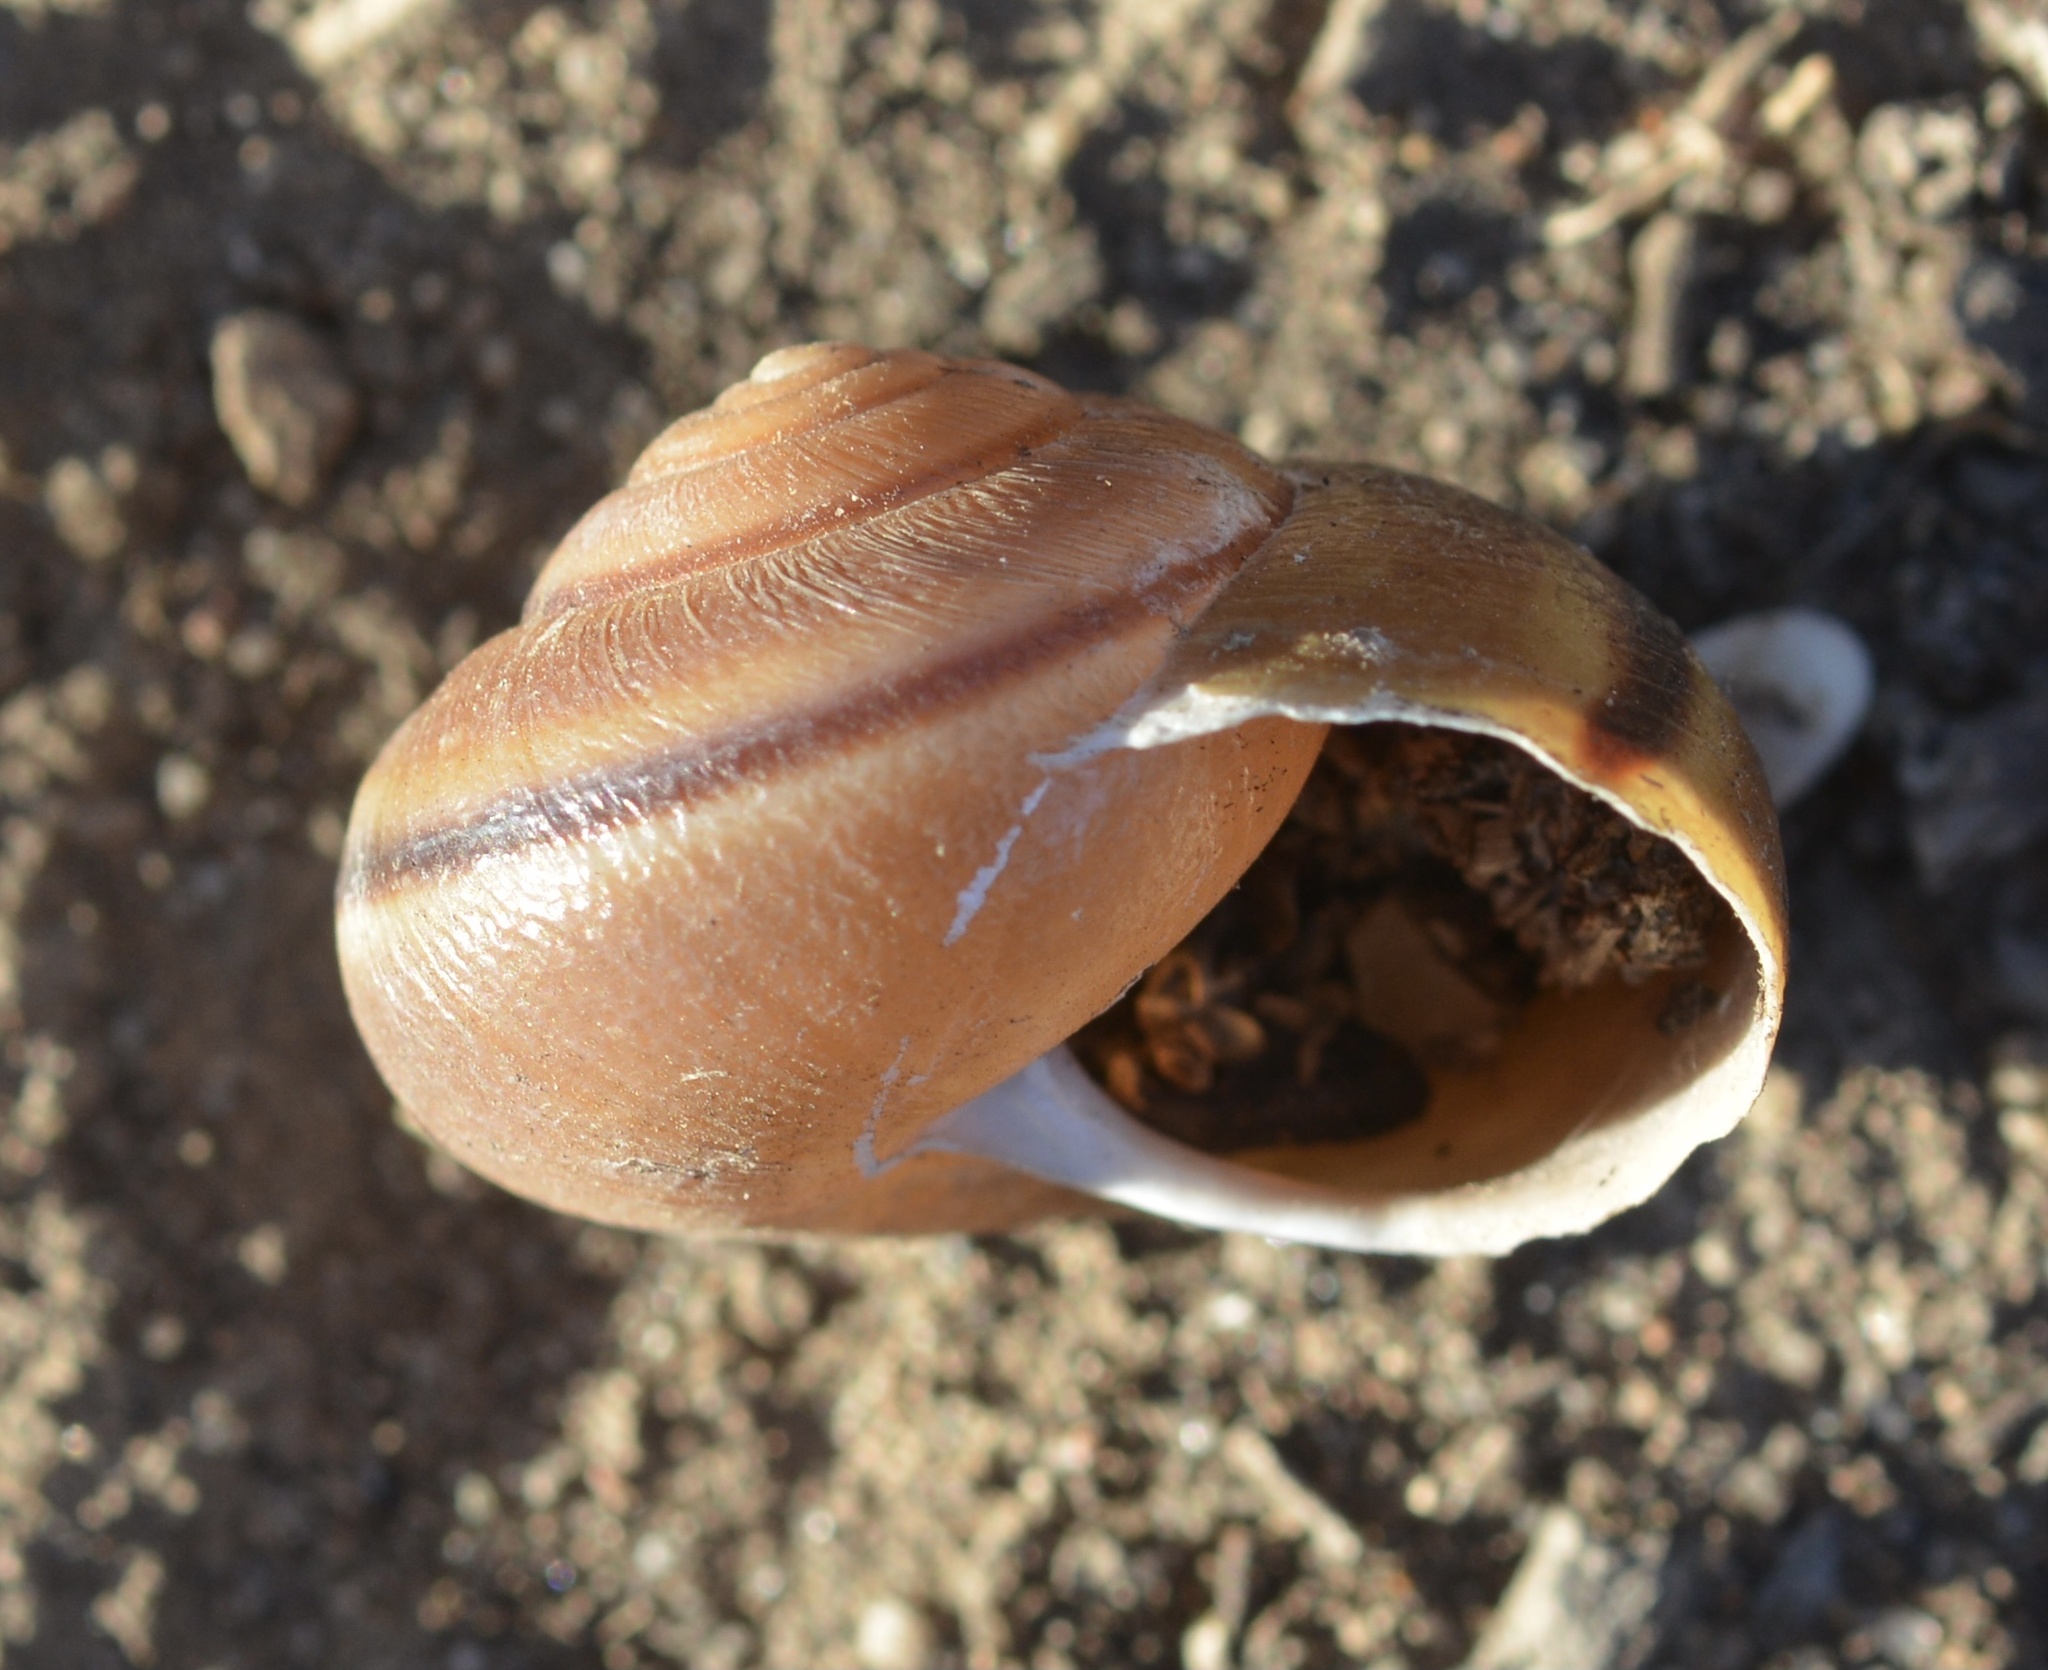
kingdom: Animalia
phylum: Mollusca
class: Gastropoda
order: Stylommatophora
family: Xanthonychidae
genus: Helminthoglypta
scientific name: Helminthoglypta tudiculata
